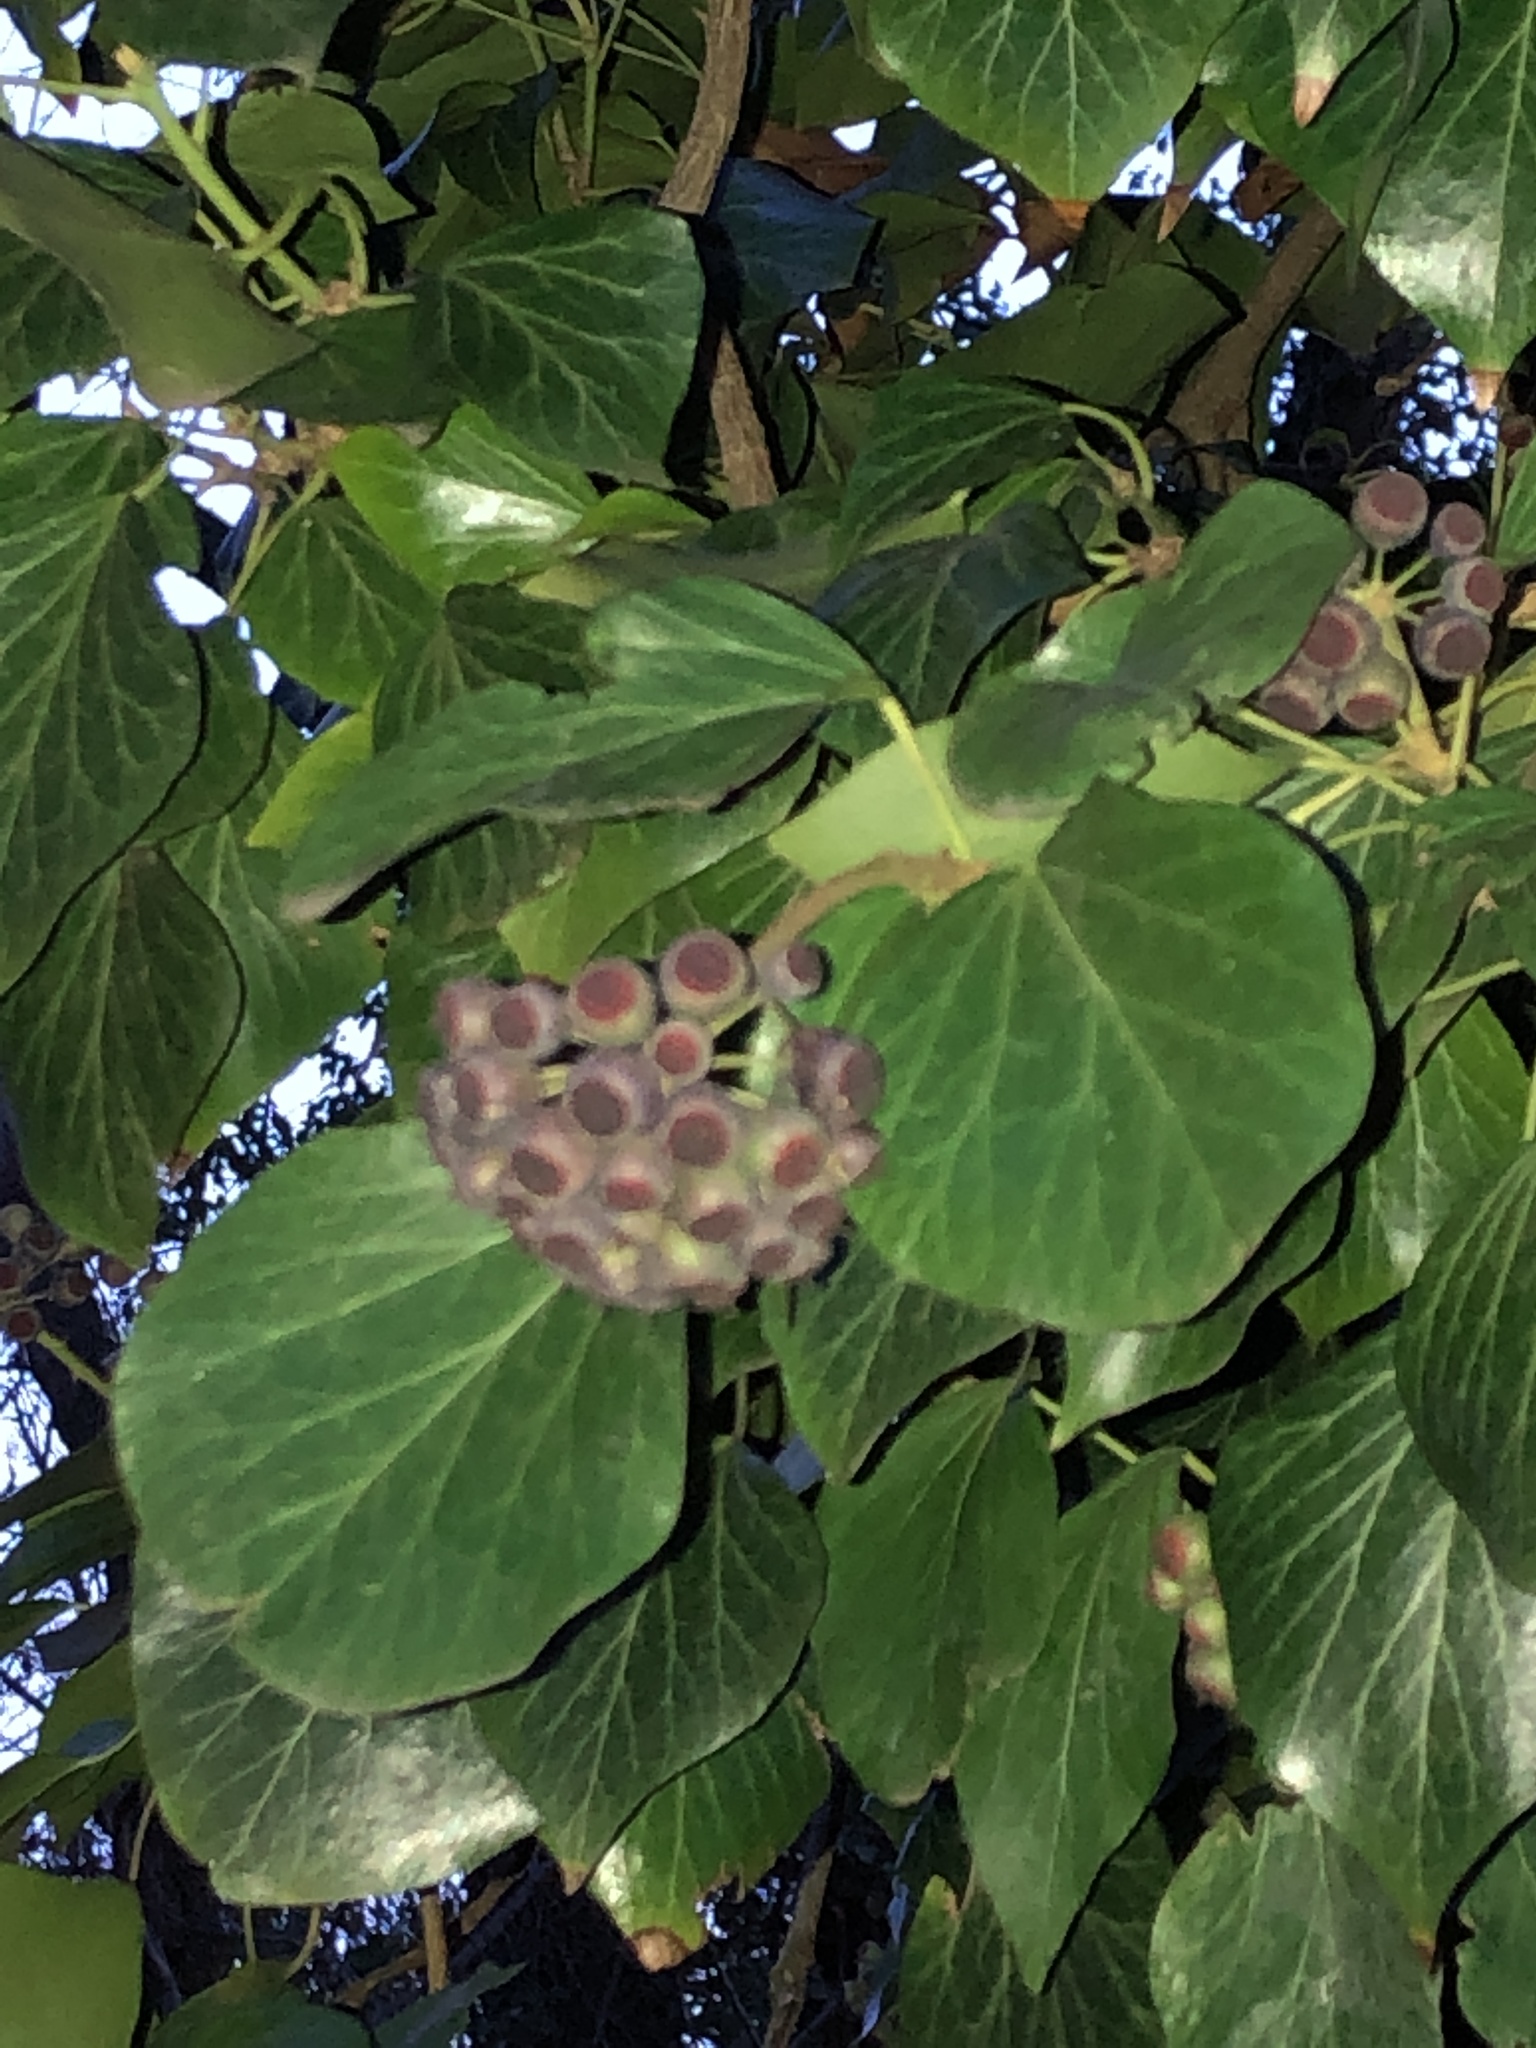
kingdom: Plantae
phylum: Tracheophyta
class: Magnoliopsida
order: Apiales
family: Araliaceae
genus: Hedera
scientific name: Hedera helix
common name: Ivy
